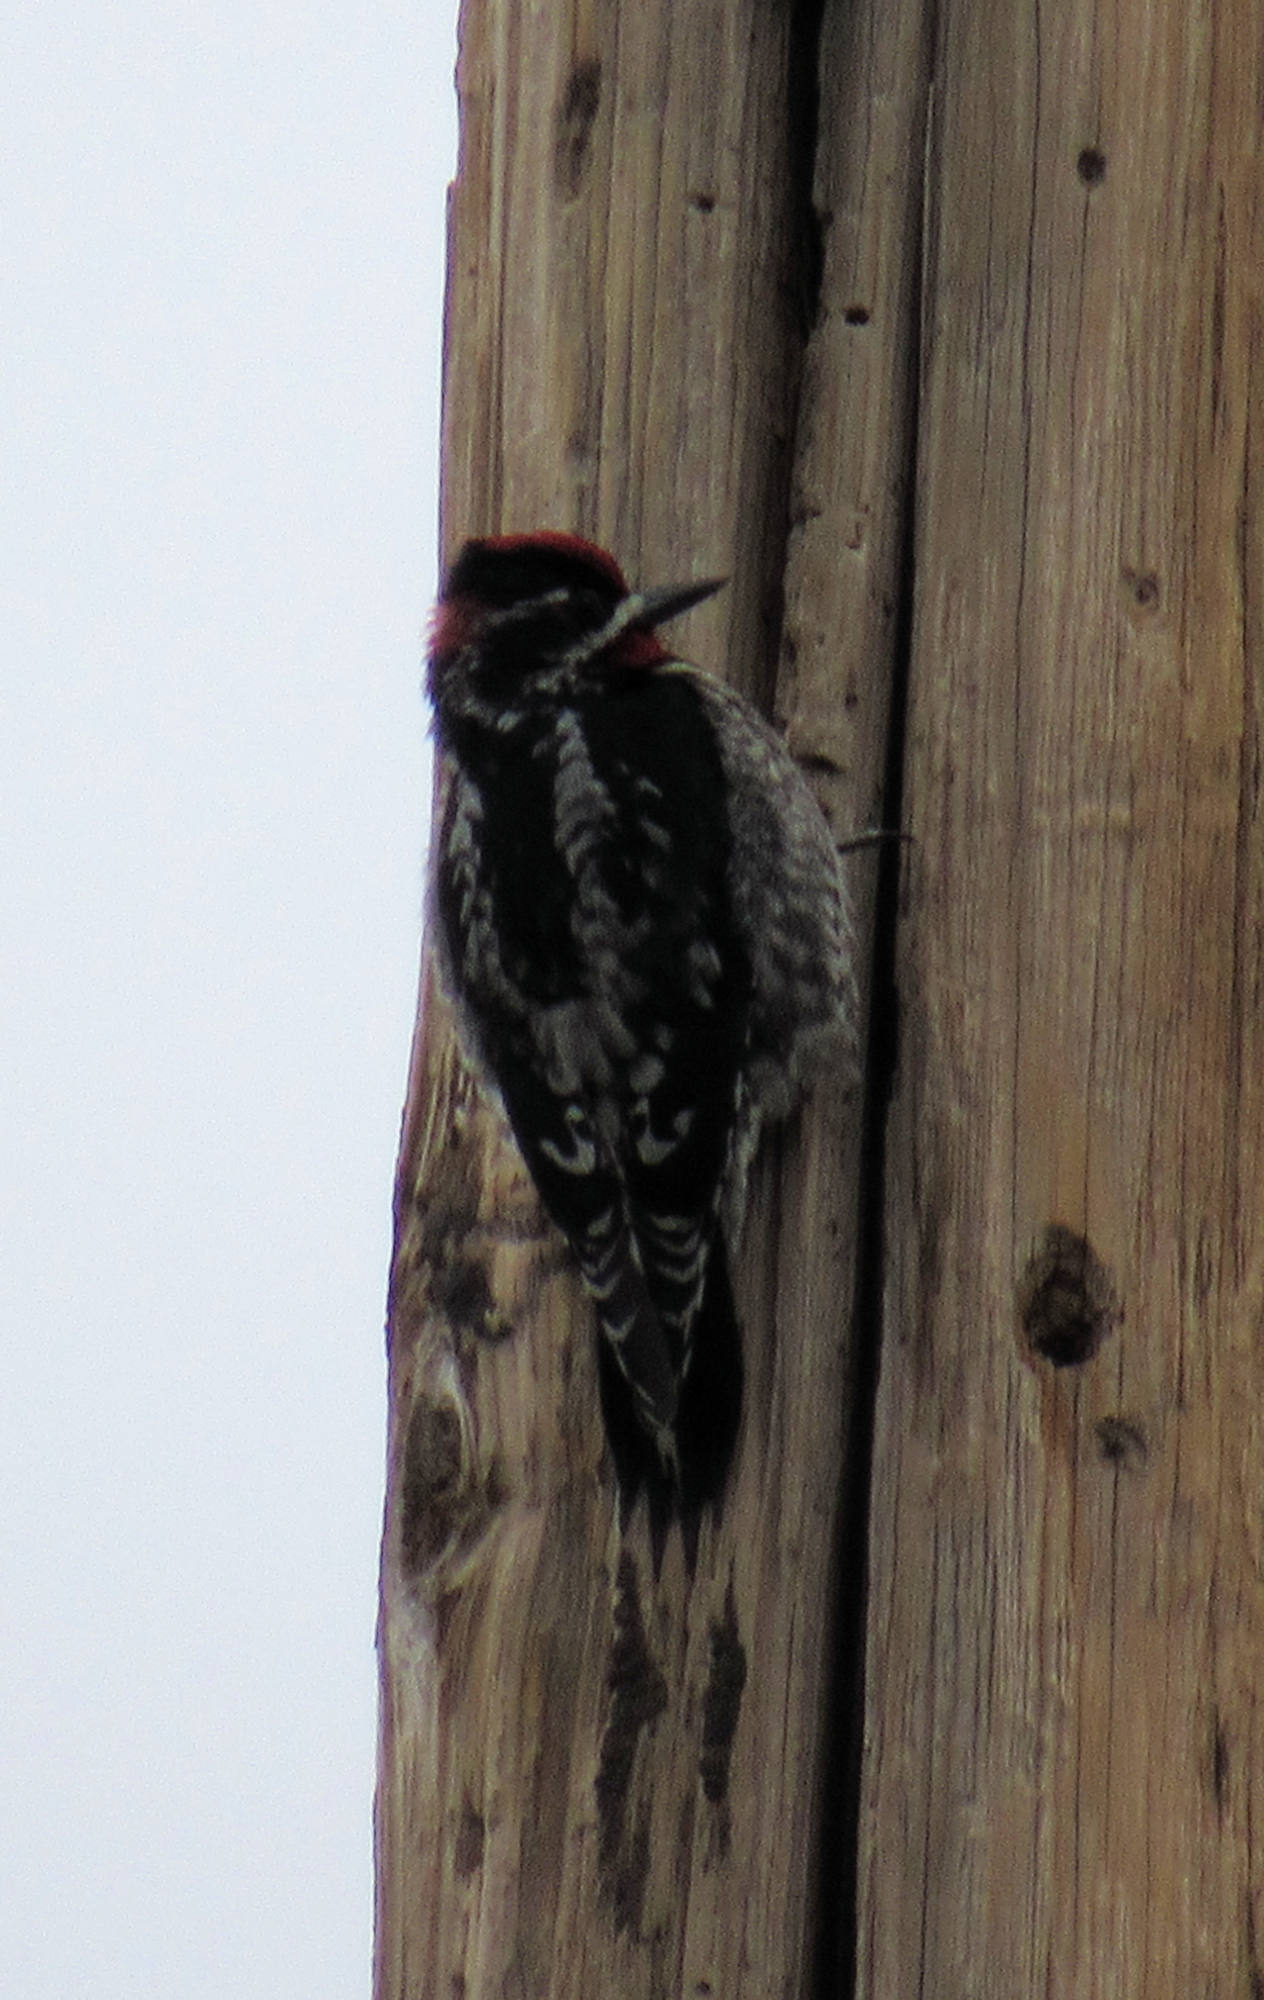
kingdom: Animalia
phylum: Chordata
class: Aves
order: Piciformes
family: Picidae
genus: Sphyrapicus
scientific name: Sphyrapicus nuchalis
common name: Red-naped sapsucker
